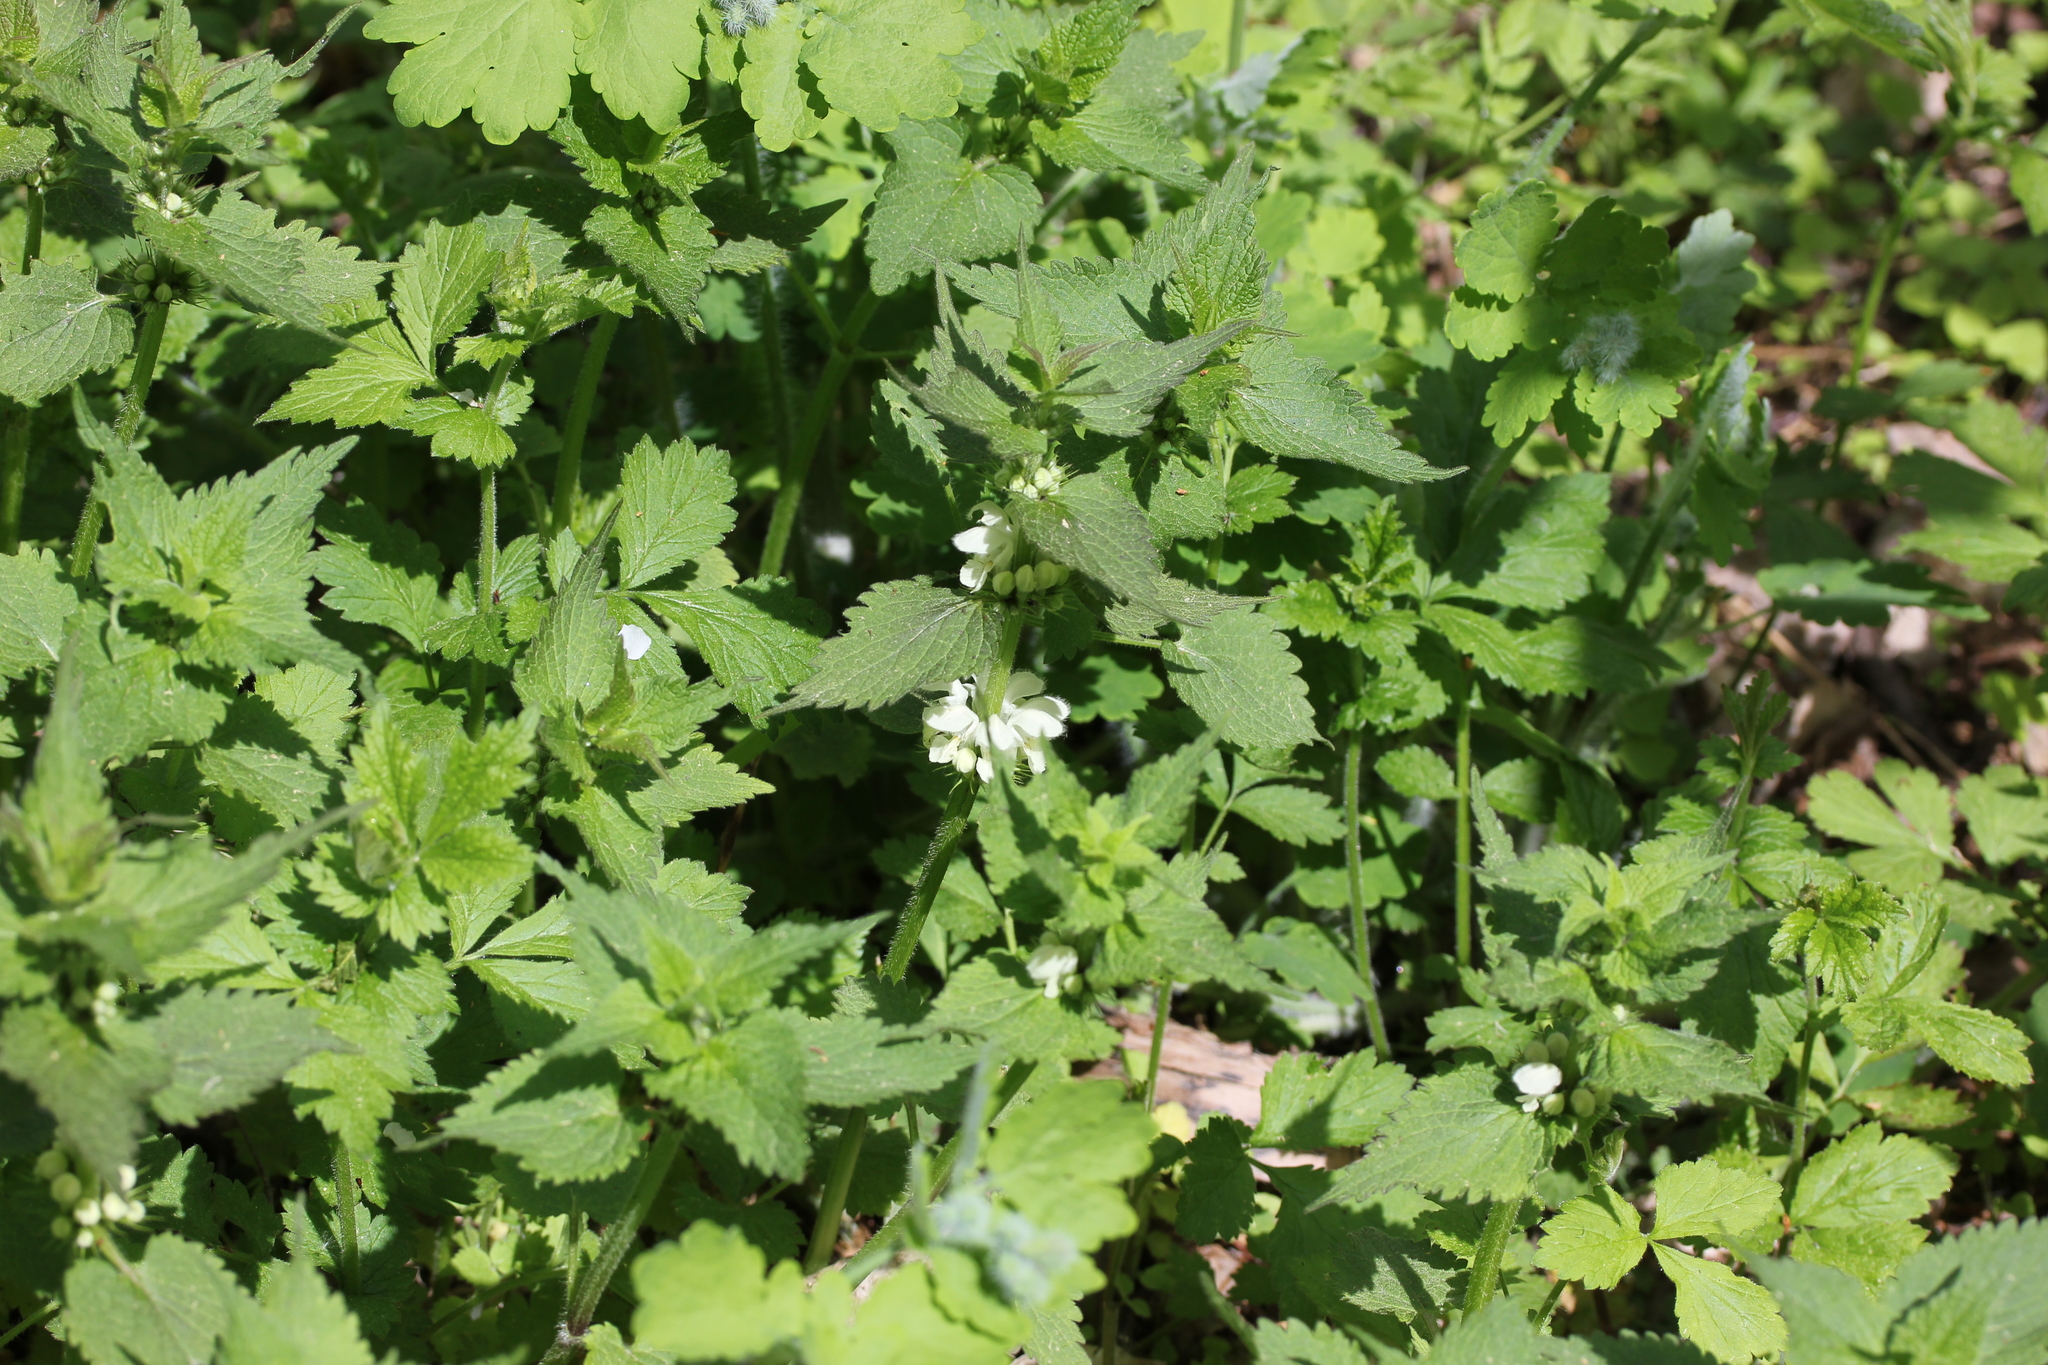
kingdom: Plantae
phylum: Tracheophyta
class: Magnoliopsida
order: Lamiales
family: Lamiaceae
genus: Lamium
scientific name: Lamium album
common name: White dead-nettle
